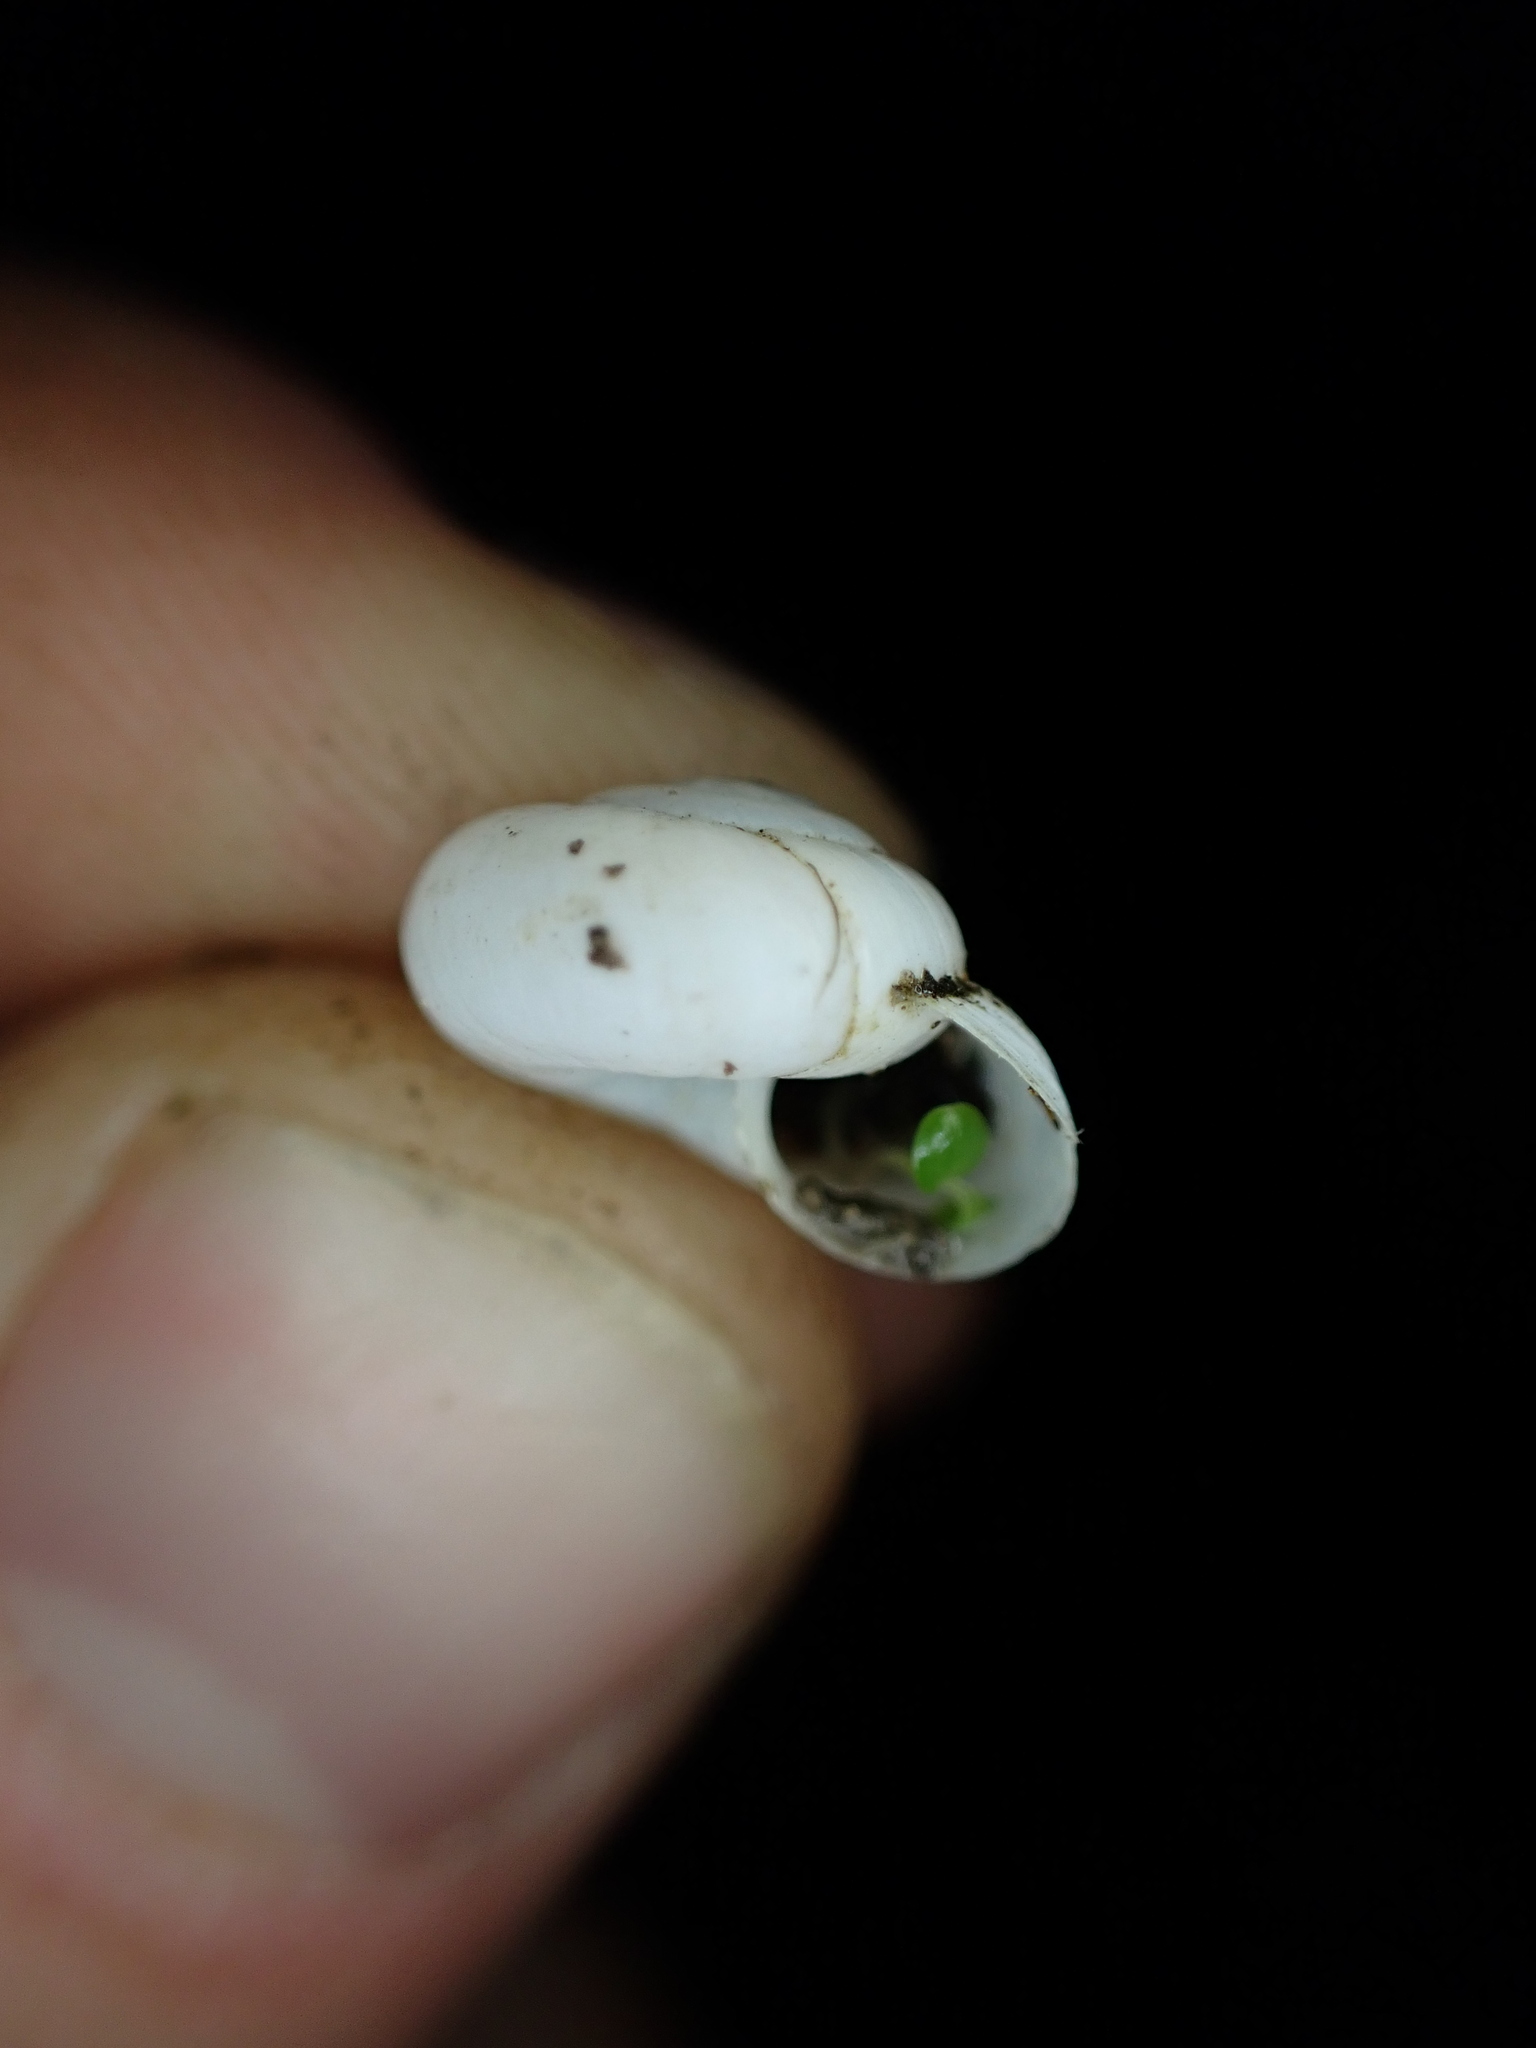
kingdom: Animalia
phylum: Mollusca
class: Gastropoda
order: Stylommatophora
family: Geomitridae
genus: Xeropicta
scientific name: Xeropicta derbentina
